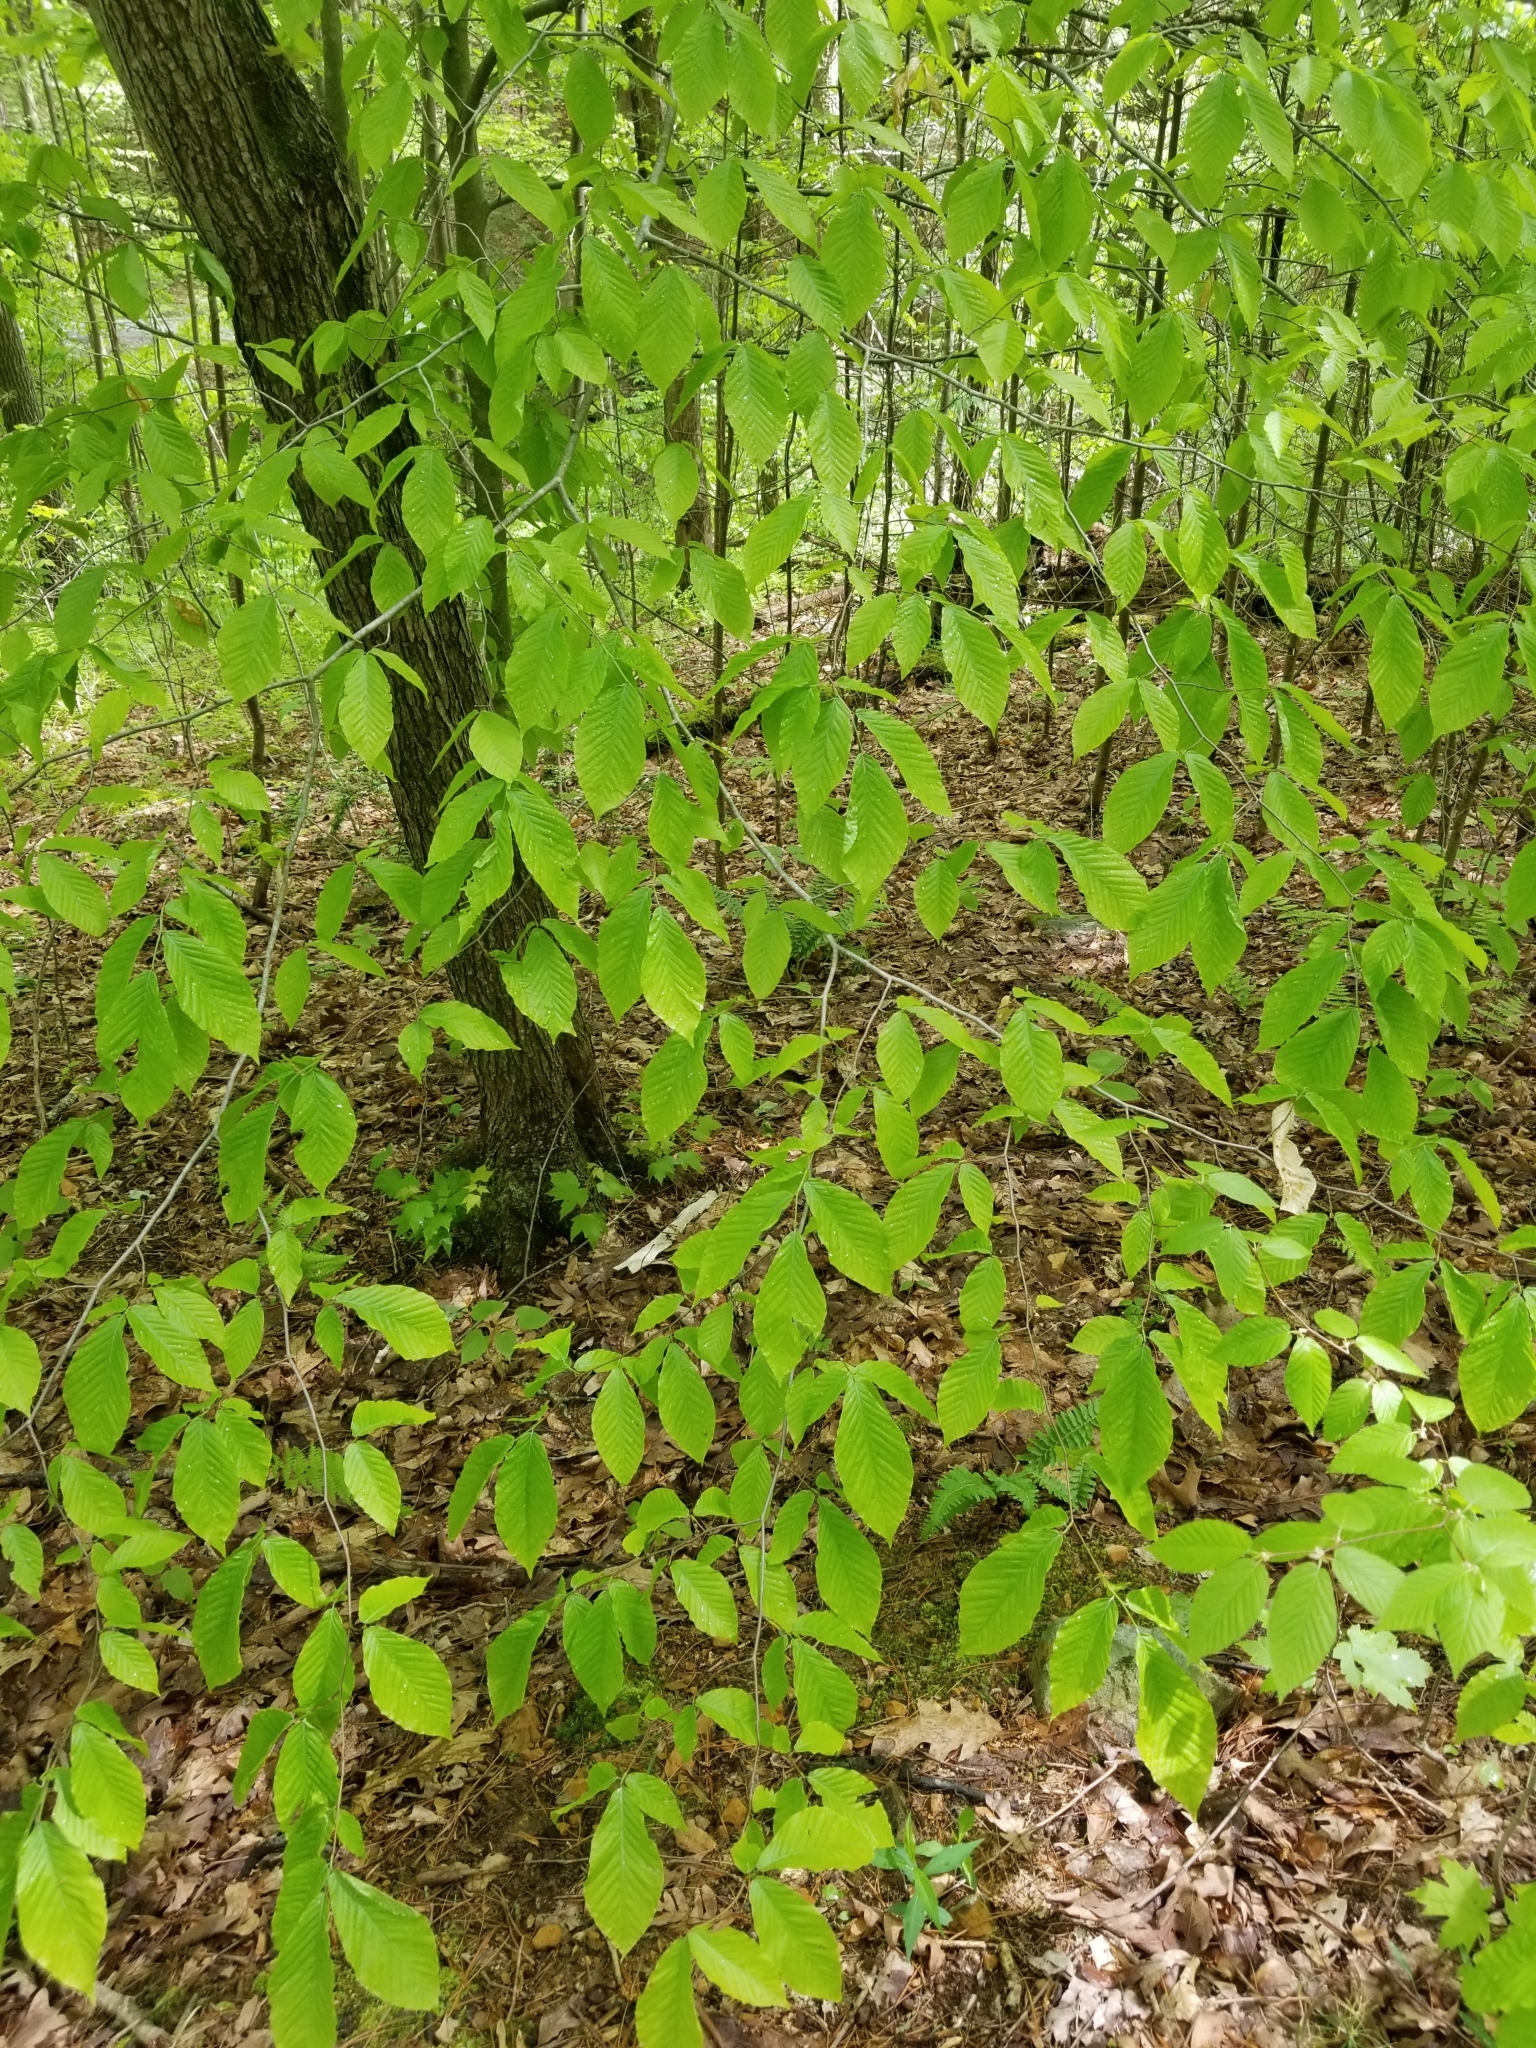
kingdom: Plantae
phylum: Tracheophyta
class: Magnoliopsida
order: Fagales
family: Fagaceae
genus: Fagus
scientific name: Fagus grandifolia
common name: American beech
